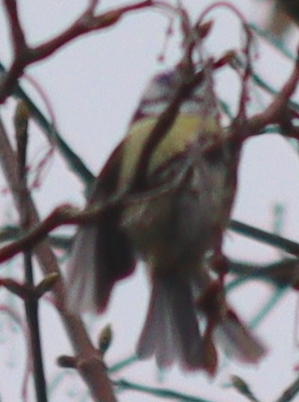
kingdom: Animalia
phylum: Chordata
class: Aves
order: Passeriformes
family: Paridae
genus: Cyanistes
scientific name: Cyanistes caeruleus
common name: Eurasian blue tit
